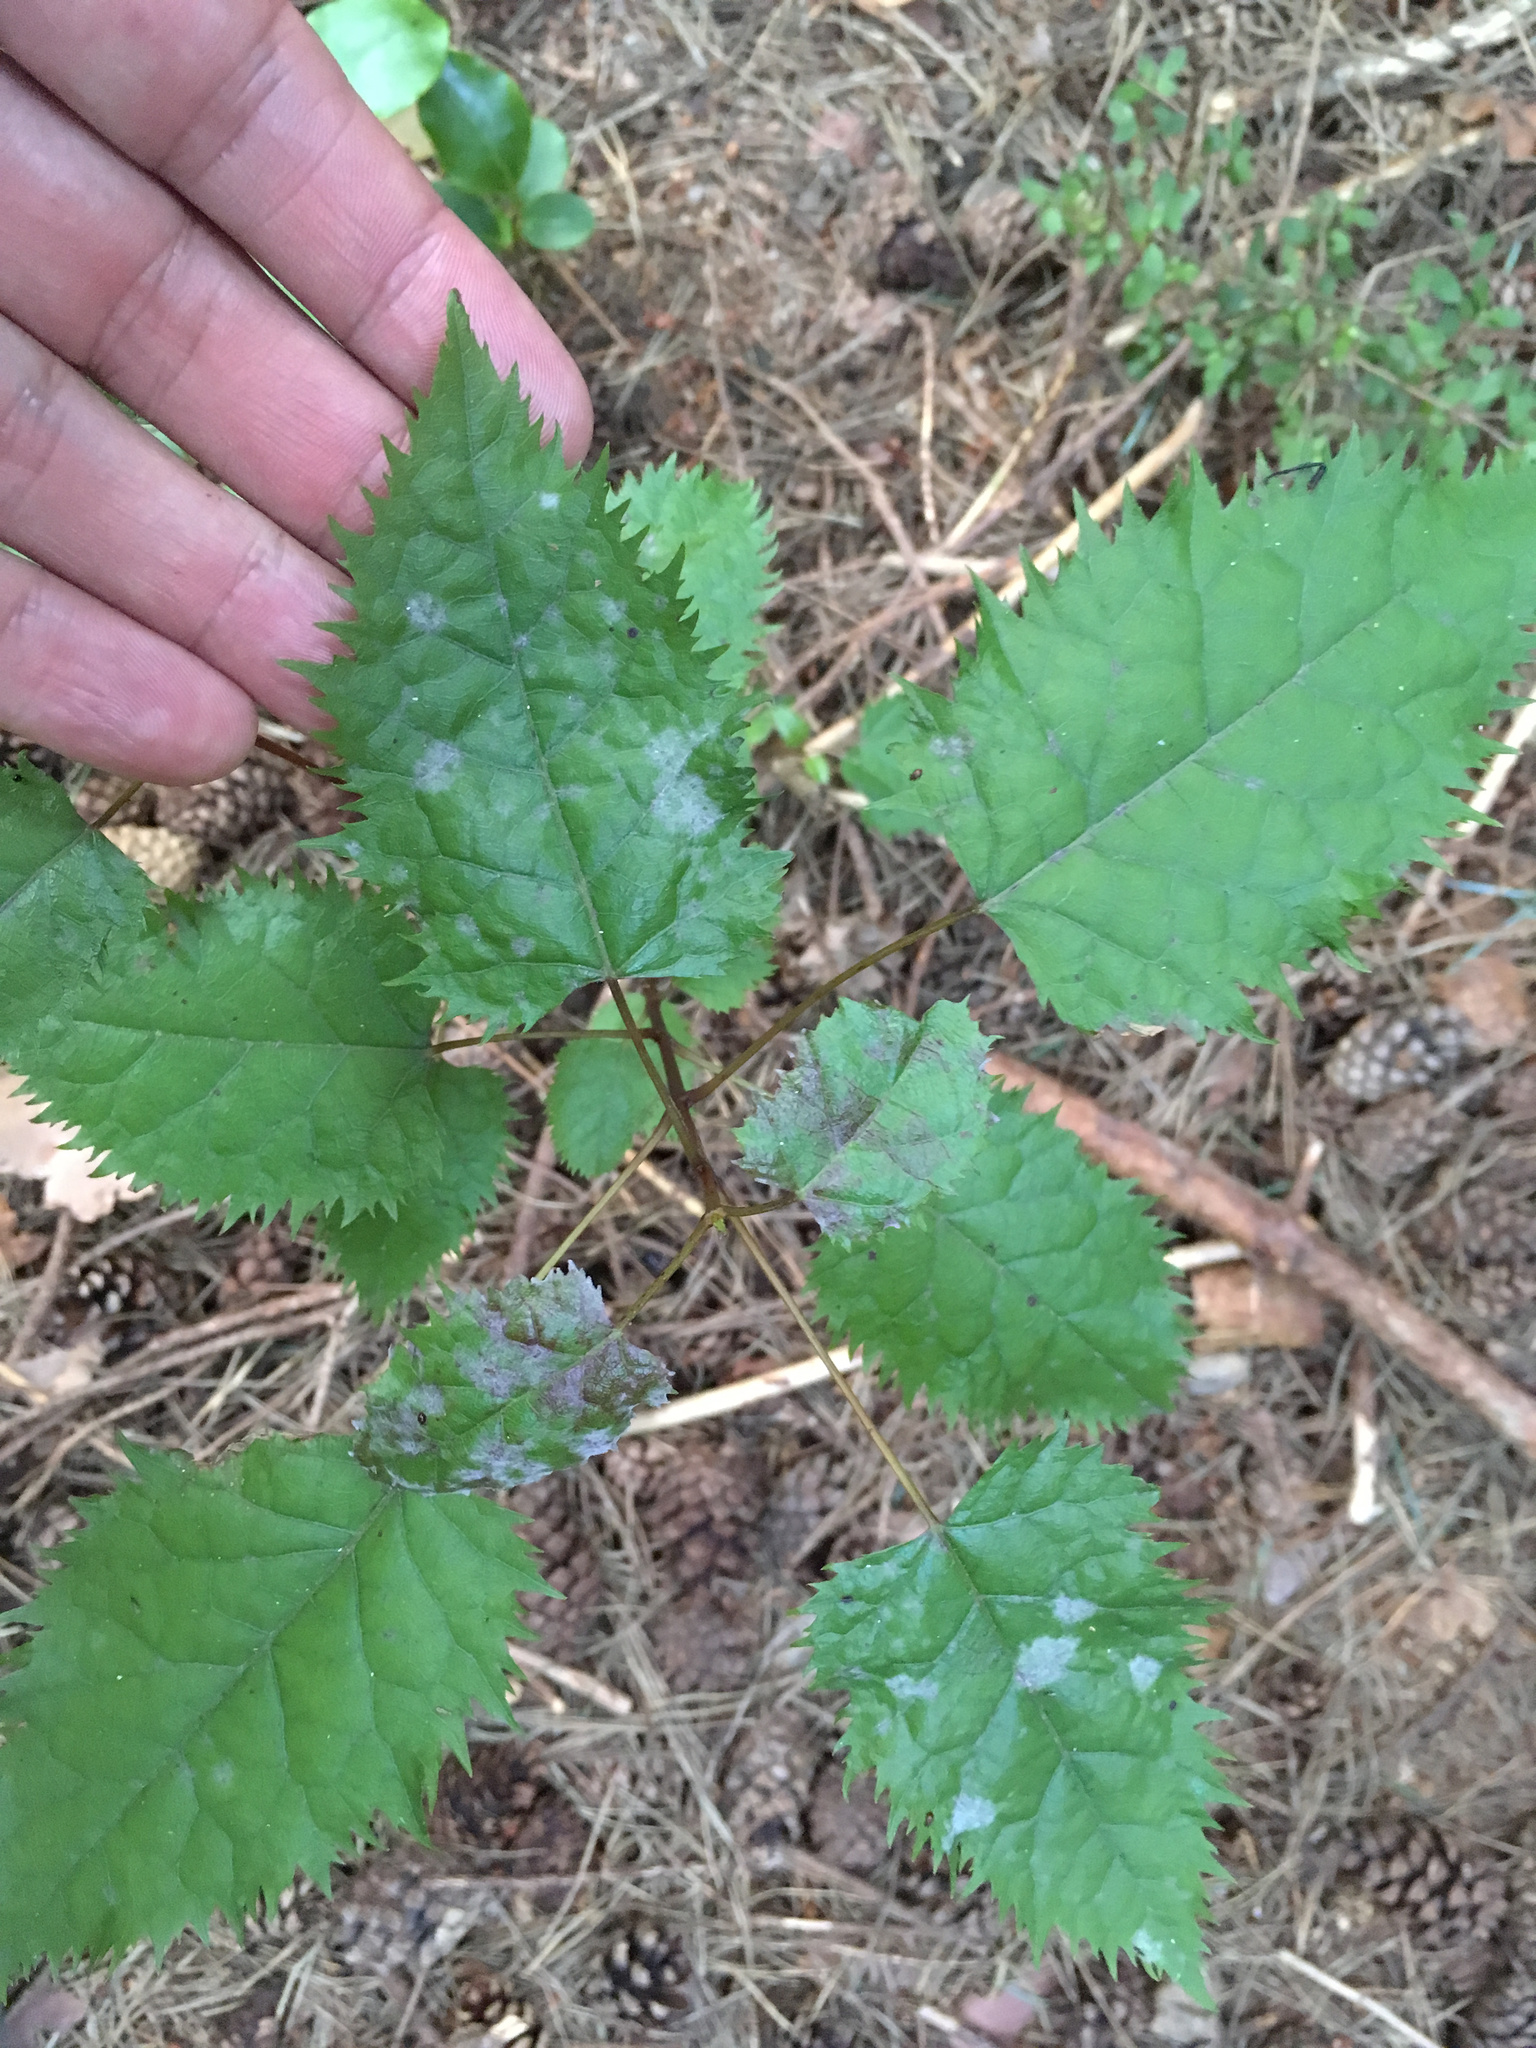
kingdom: Plantae
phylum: Tracheophyta
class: Magnoliopsida
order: Oxalidales
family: Elaeocarpaceae
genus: Aristotelia
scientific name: Aristotelia serrata
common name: New zealand wineberry
